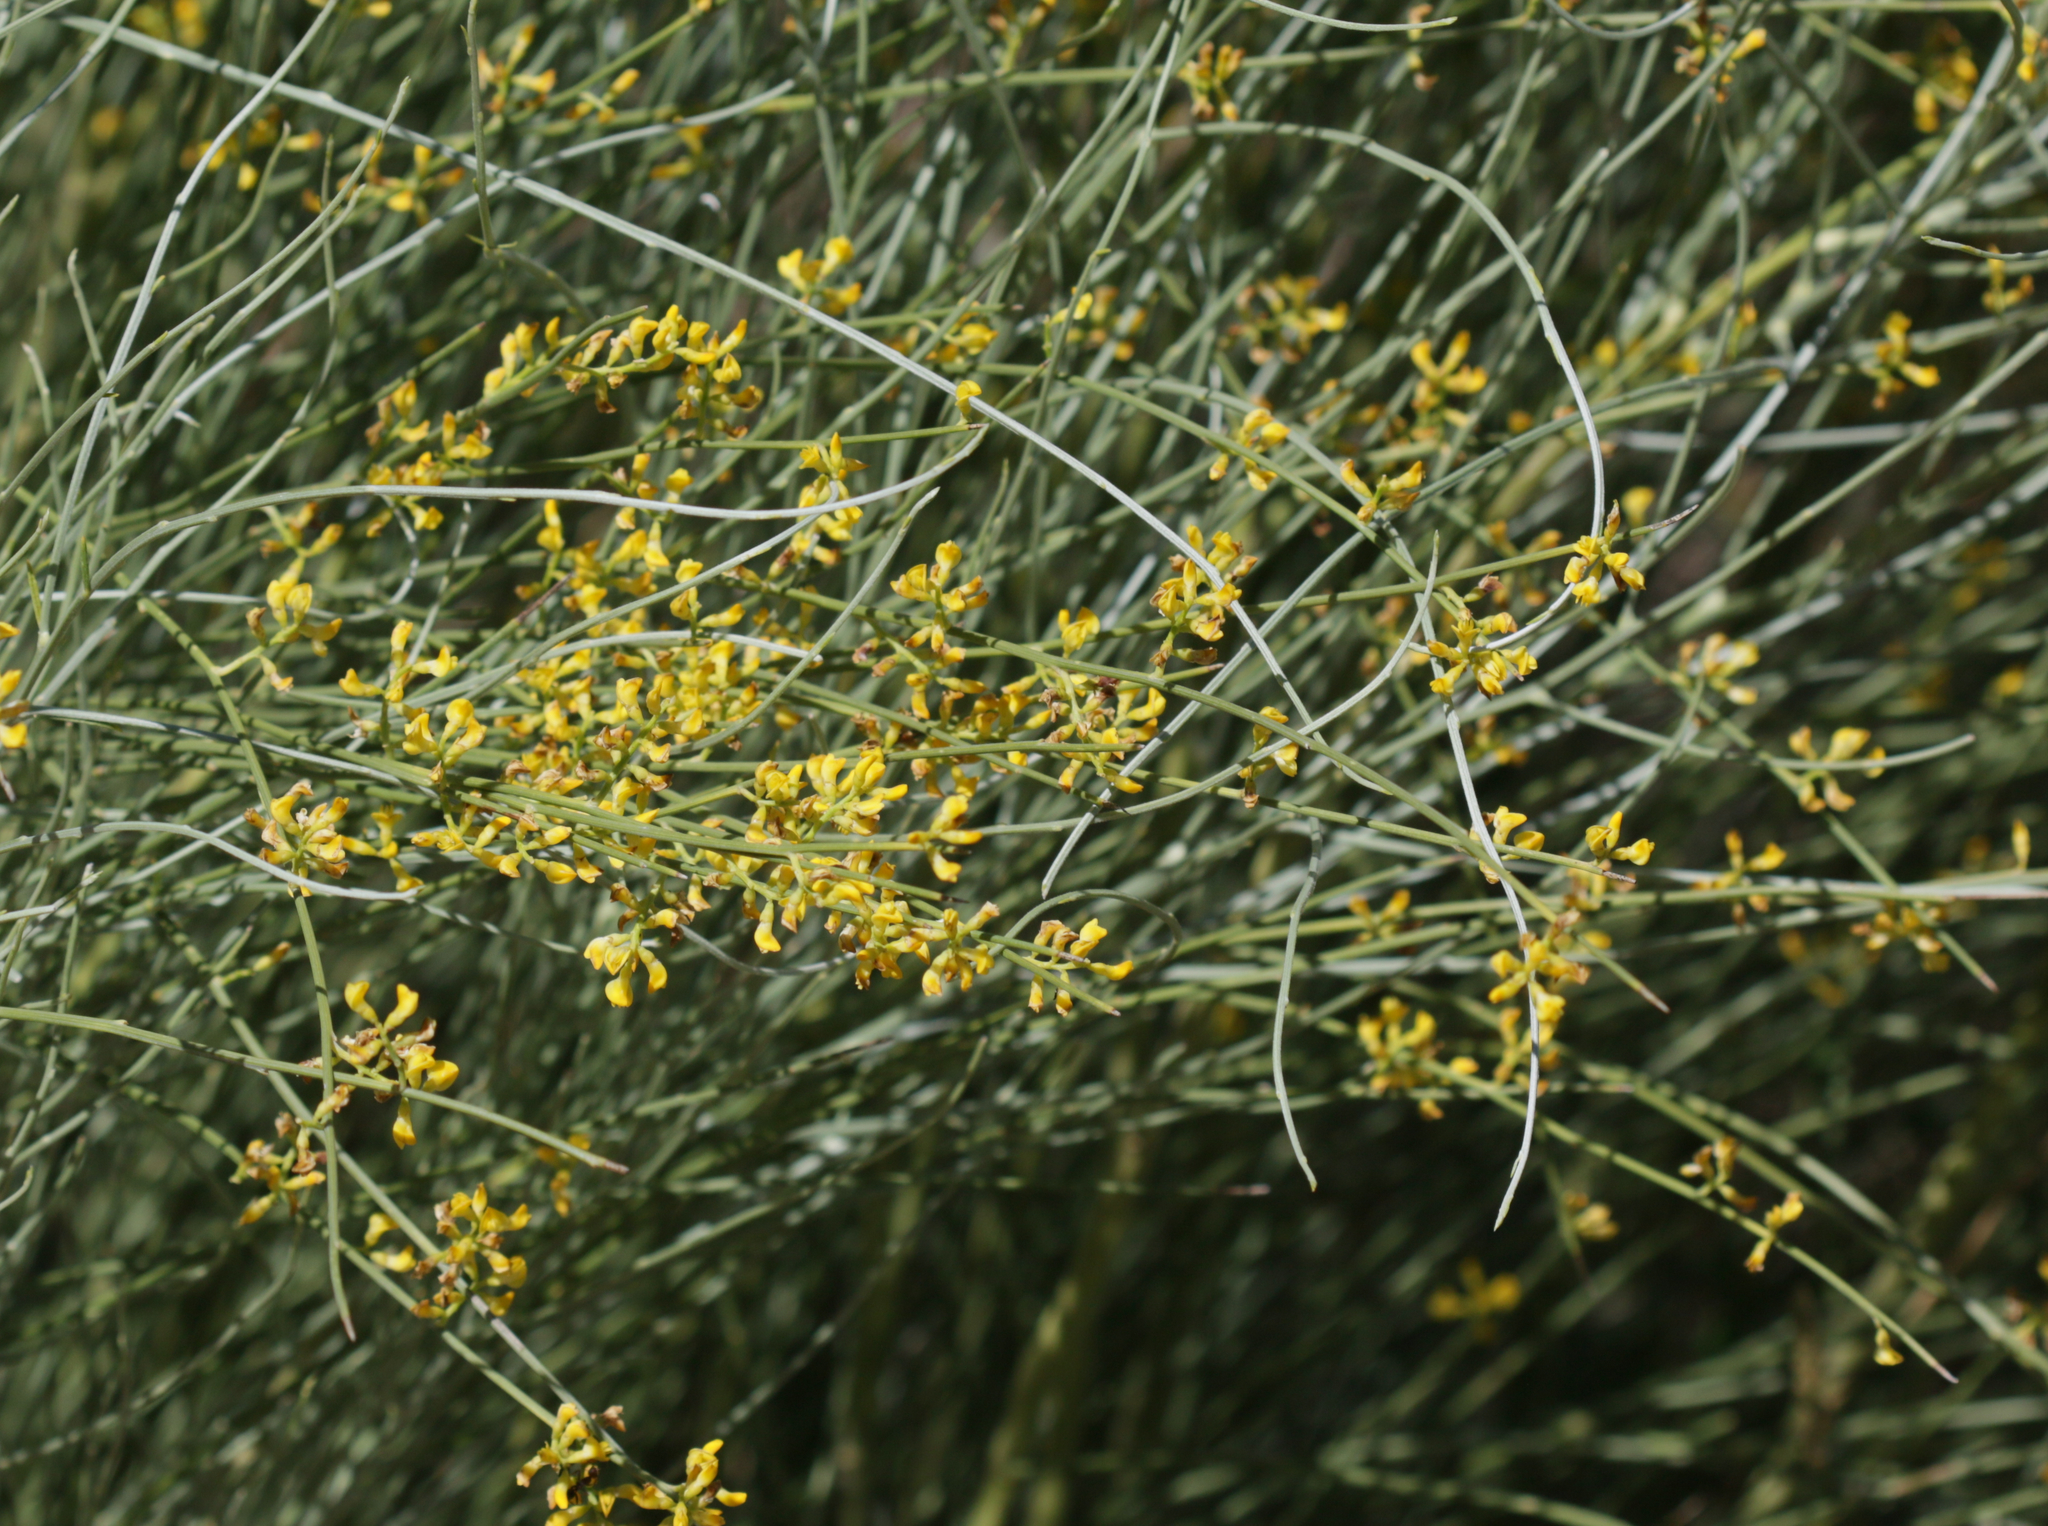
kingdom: Plantae
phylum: Tracheophyta
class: Magnoliopsida
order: Fabales
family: Fabaceae
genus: Retama
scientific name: Retama sphaerocarpa
